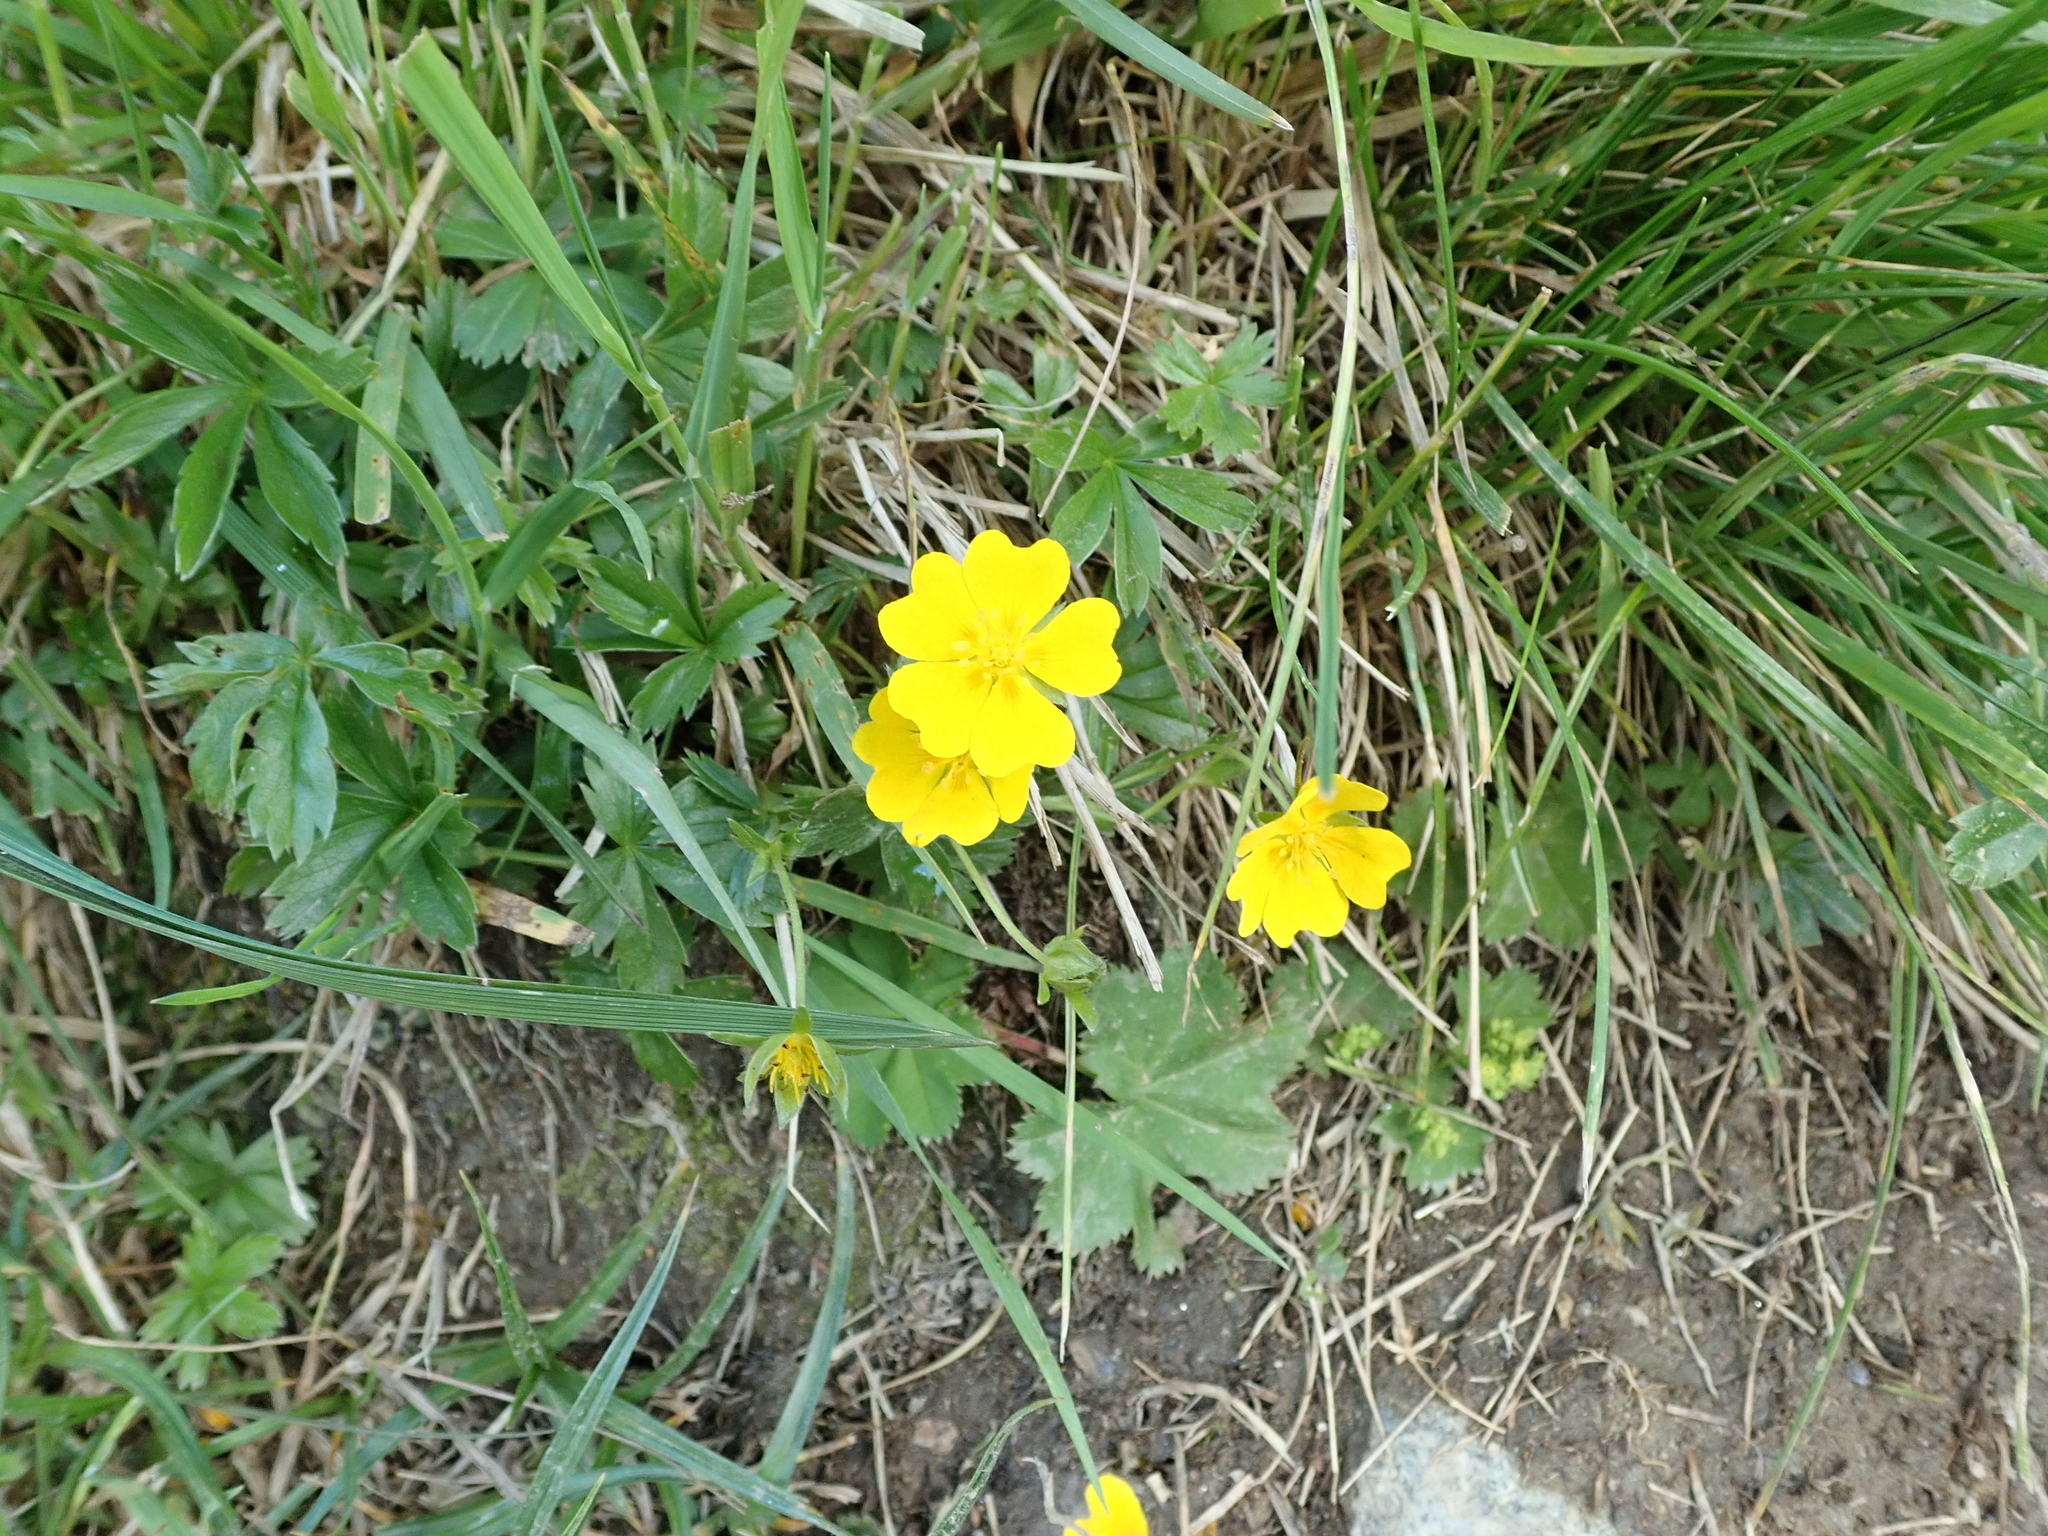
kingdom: Plantae
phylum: Tracheophyta
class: Magnoliopsida
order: Rosales
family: Rosaceae
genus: Potentilla
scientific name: Potentilla aurea
